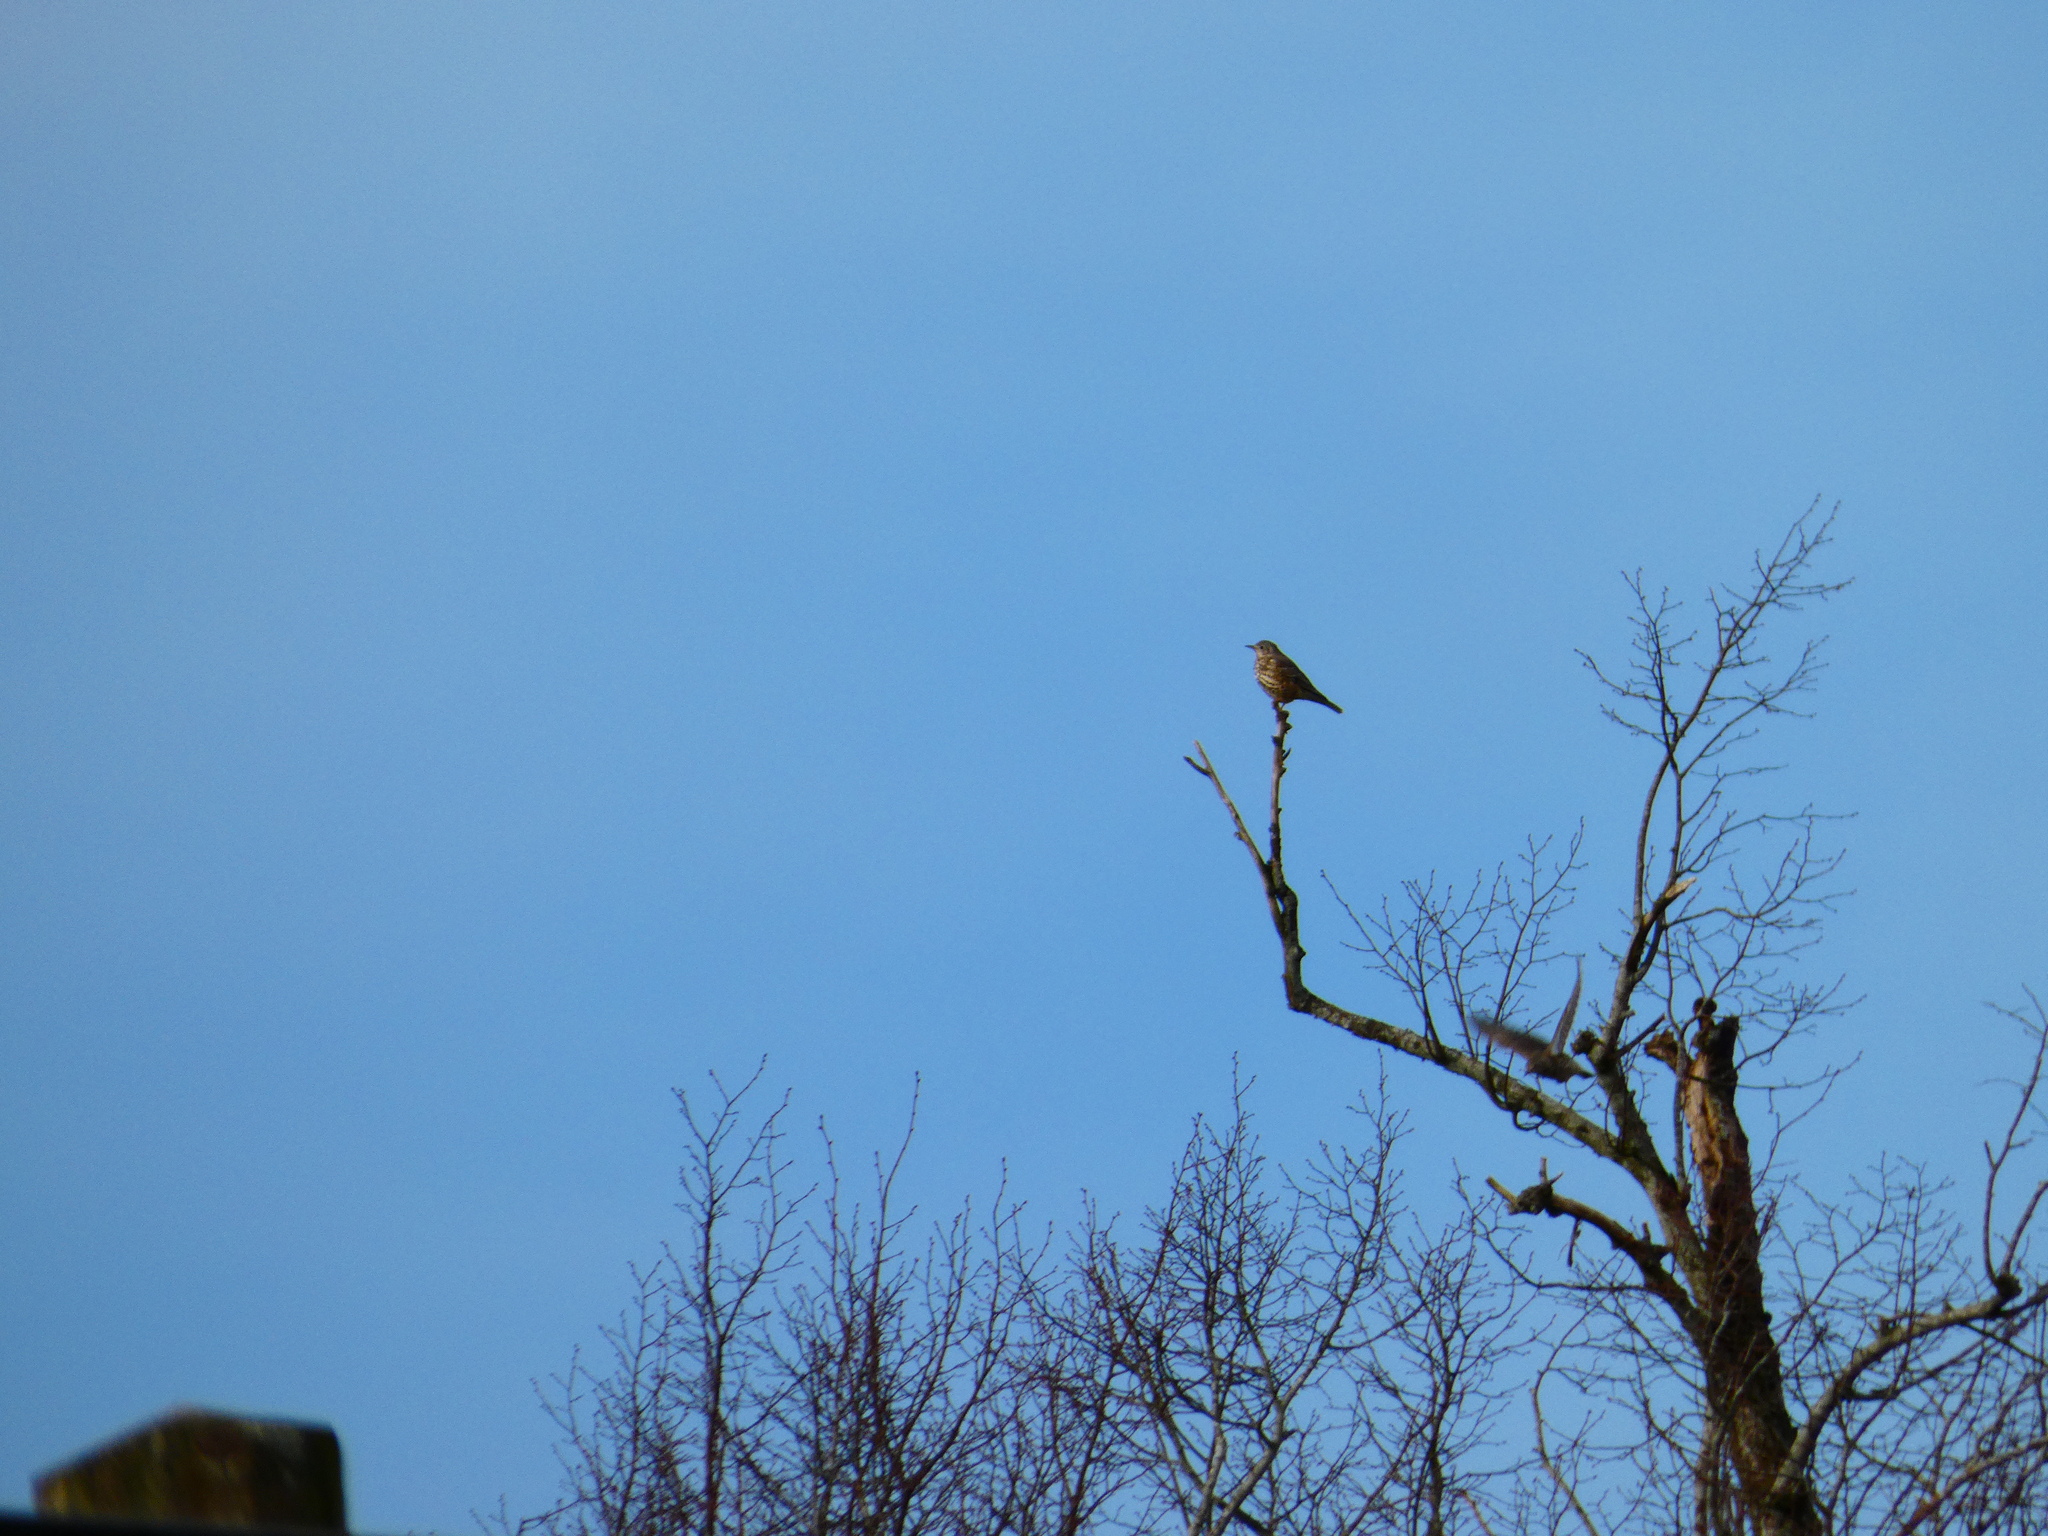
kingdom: Animalia
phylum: Chordata
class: Aves
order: Passeriformes
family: Turdidae
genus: Turdus
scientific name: Turdus philomelos
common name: Song thrush
